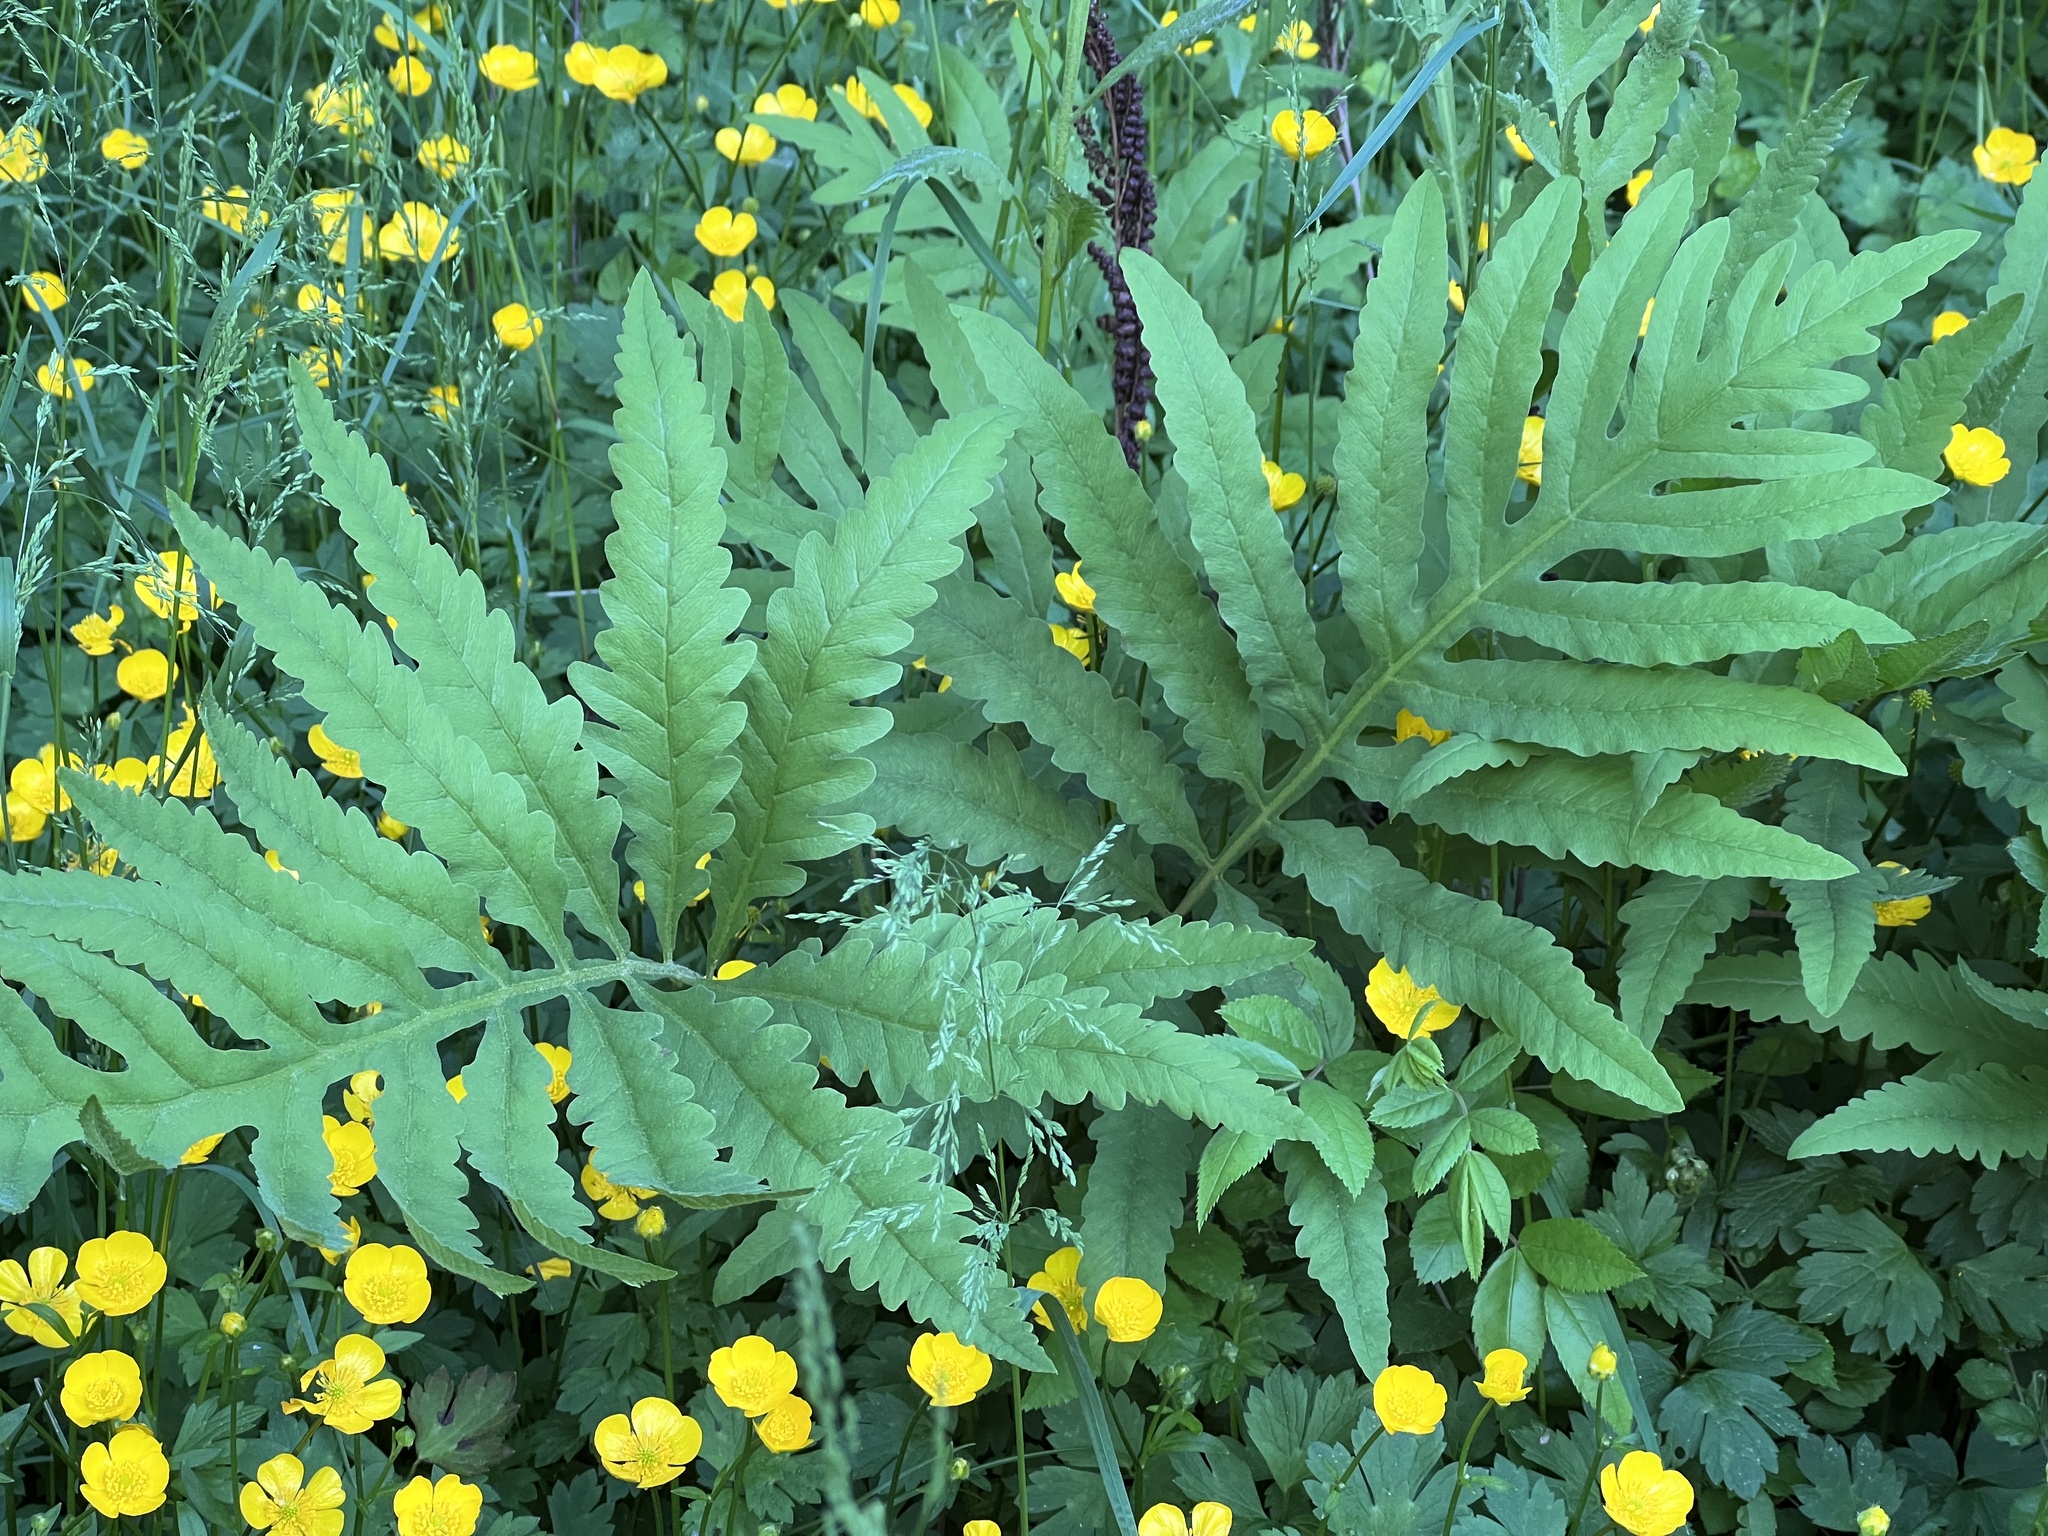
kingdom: Plantae
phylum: Tracheophyta
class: Polypodiopsida
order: Polypodiales
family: Onocleaceae
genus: Onoclea
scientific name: Onoclea sensibilis
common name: Sensitive fern
